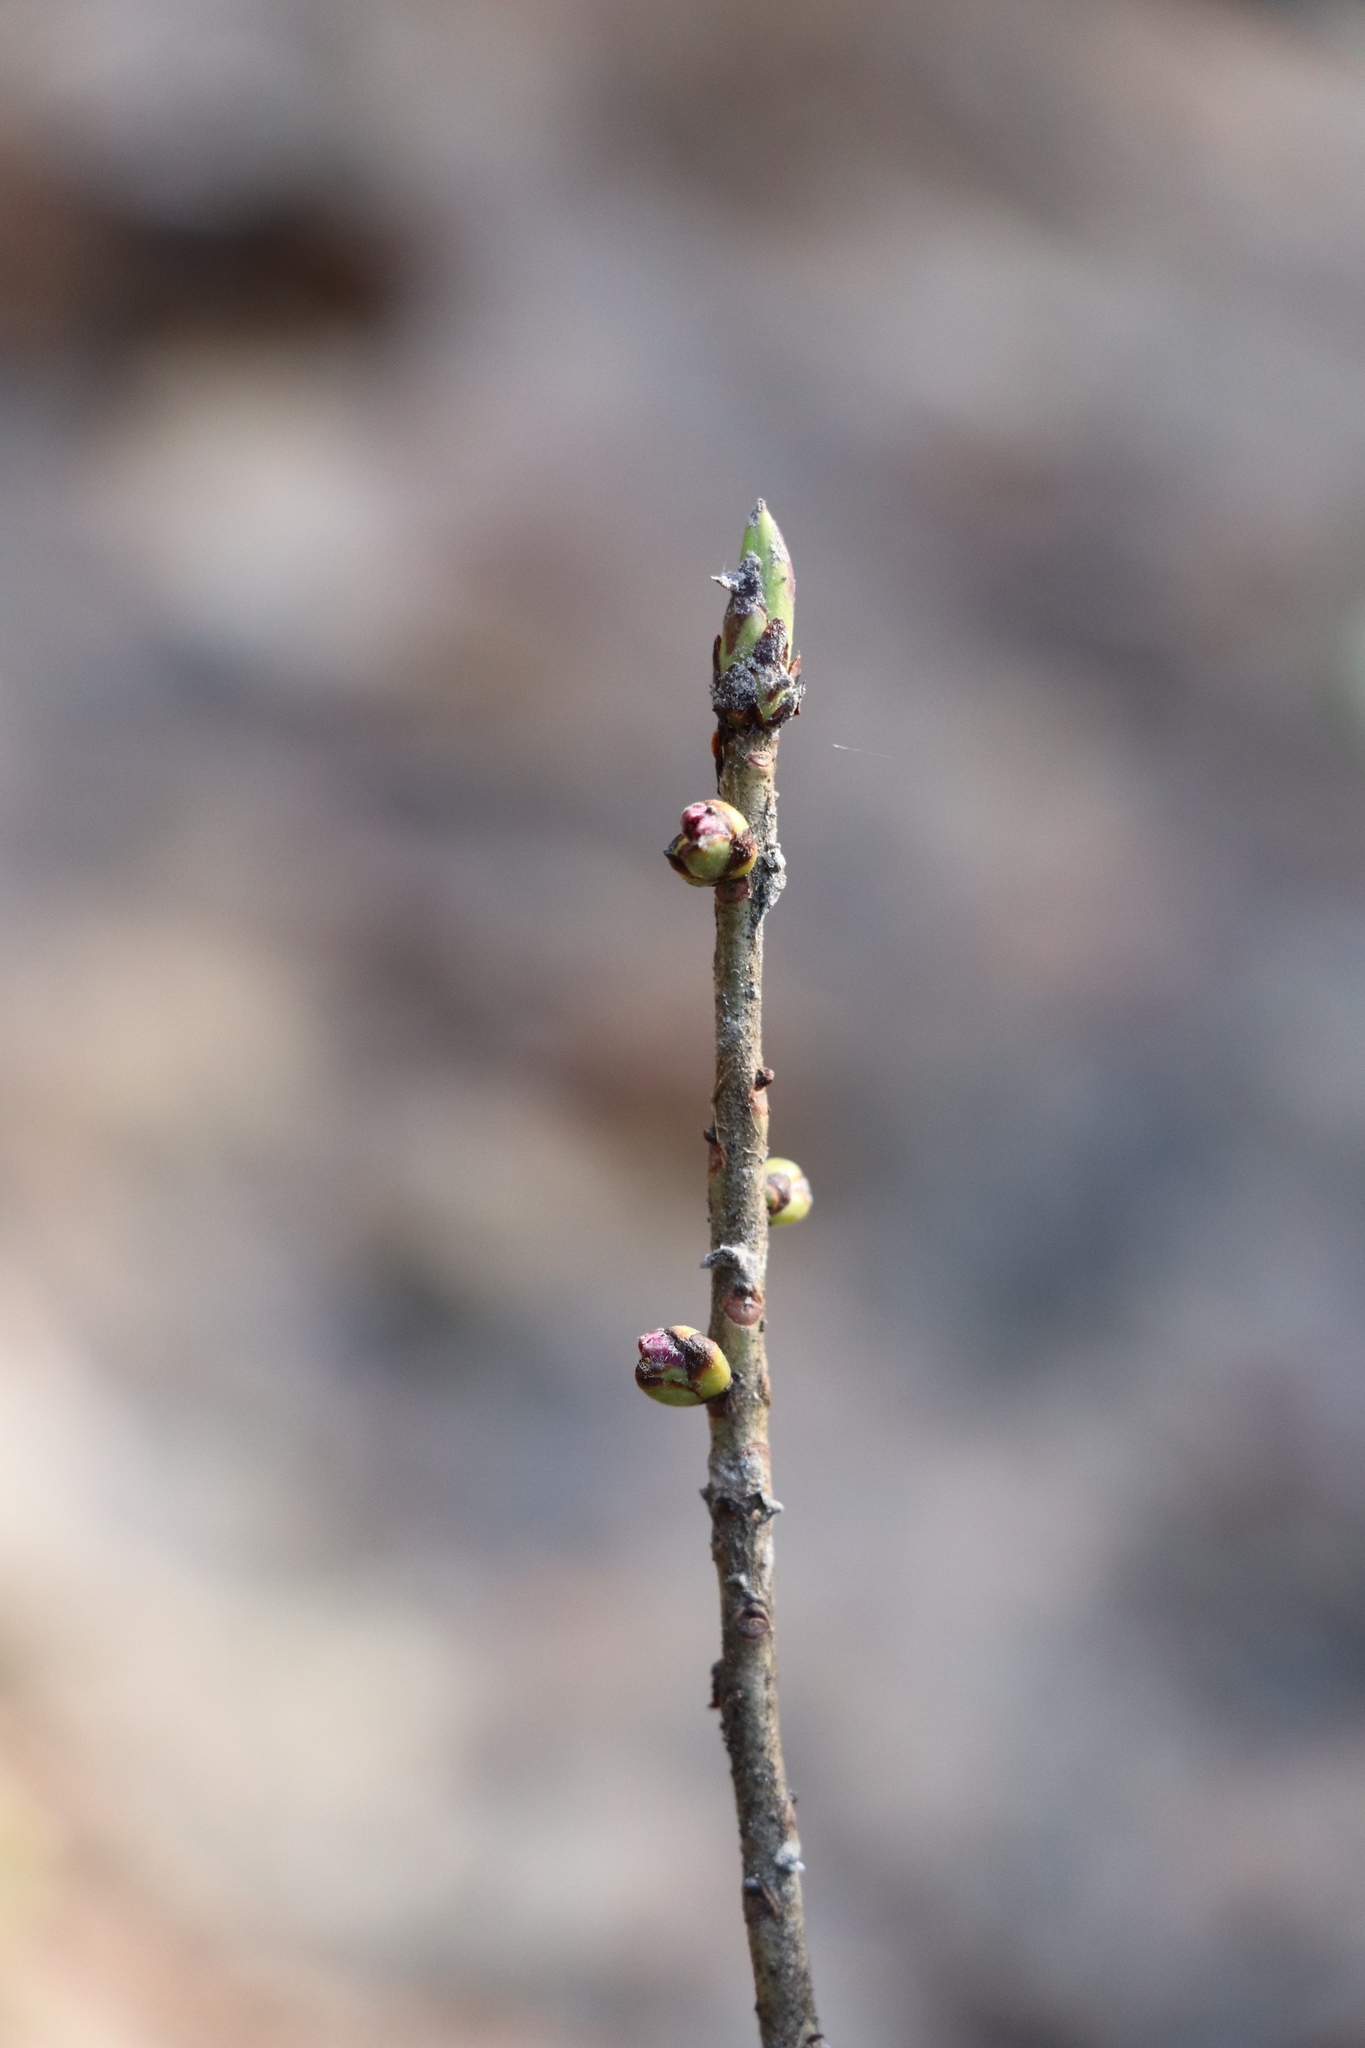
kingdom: Plantae
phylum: Tracheophyta
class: Magnoliopsida
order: Malvales
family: Thymelaeaceae
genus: Daphne
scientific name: Daphne mezereum
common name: Mezereon
